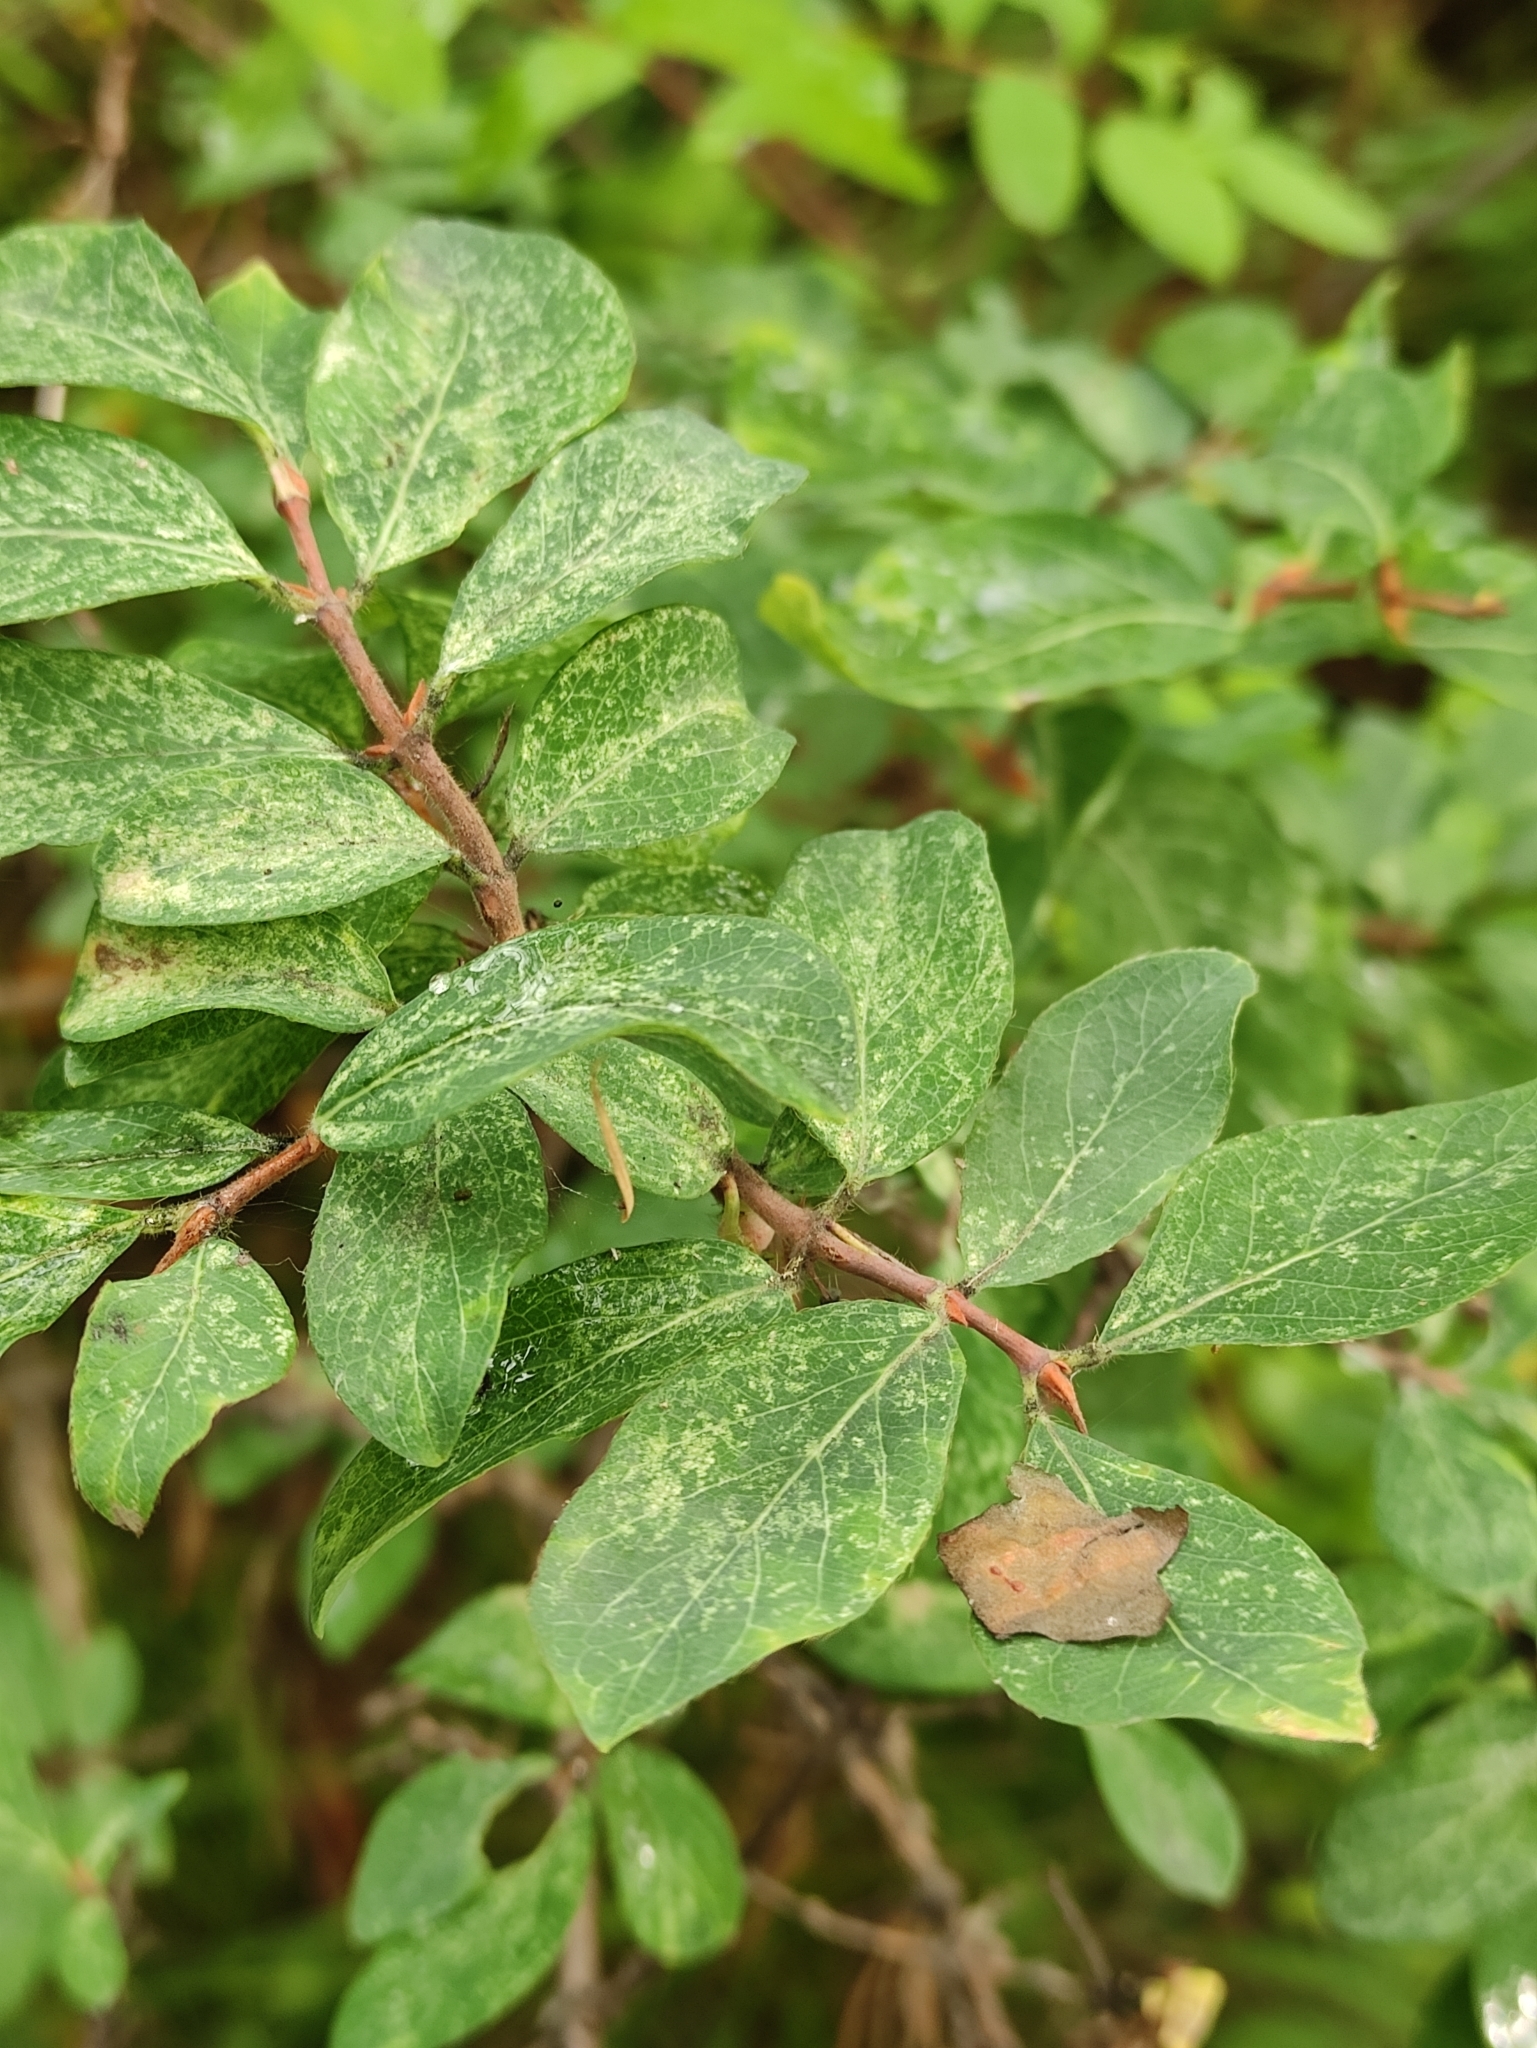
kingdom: Plantae
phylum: Tracheophyta
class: Magnoliopsida
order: Dipsacales
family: Caprifoliaceae
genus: Lonicera
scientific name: Lonicera caerulea
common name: Blue honeysuckle
